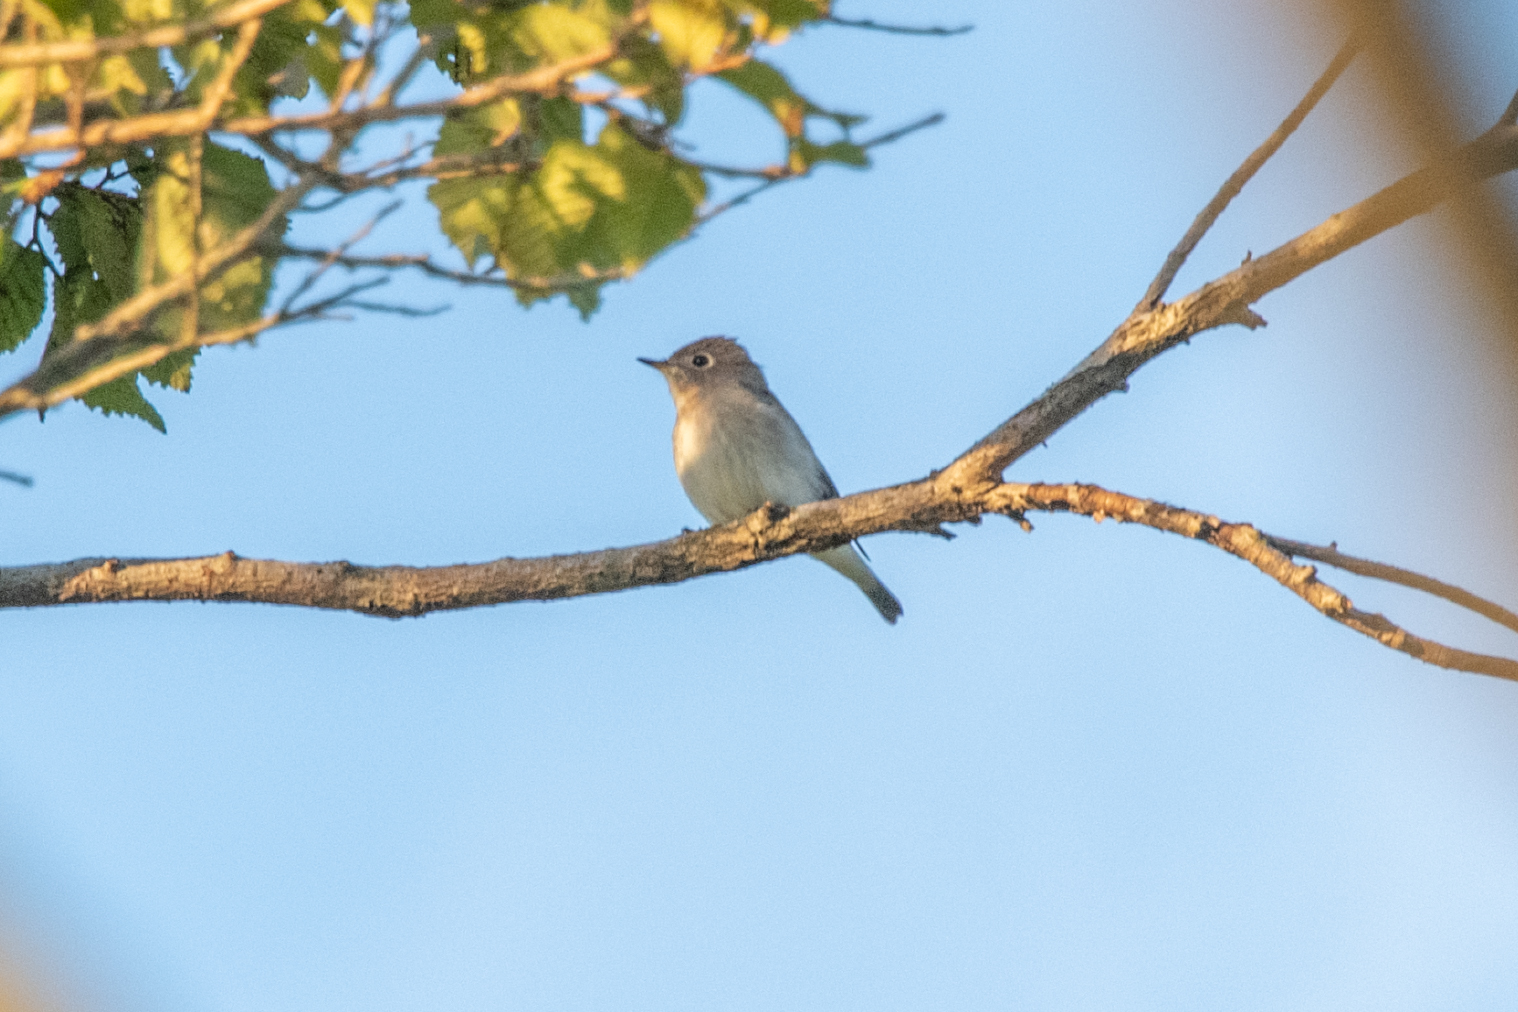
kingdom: Animalia
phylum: Chordata
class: Aves
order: Passeriformes
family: Muscicapidae
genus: Muscicapa
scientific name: Muscicapa latirostris
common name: Asian brown flycatcher
